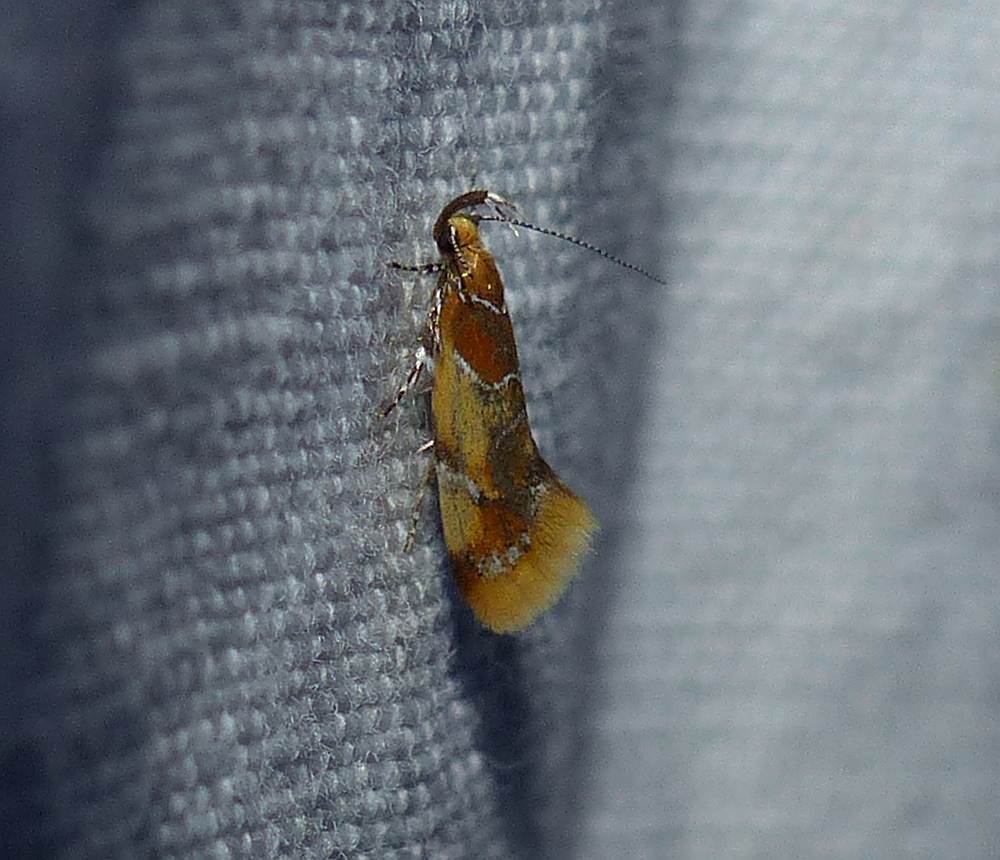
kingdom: Animalia
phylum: Arthropoda
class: Insecta
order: Lepidoptera
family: Oecophoridae
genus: Callima
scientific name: Callima argenticinctella
